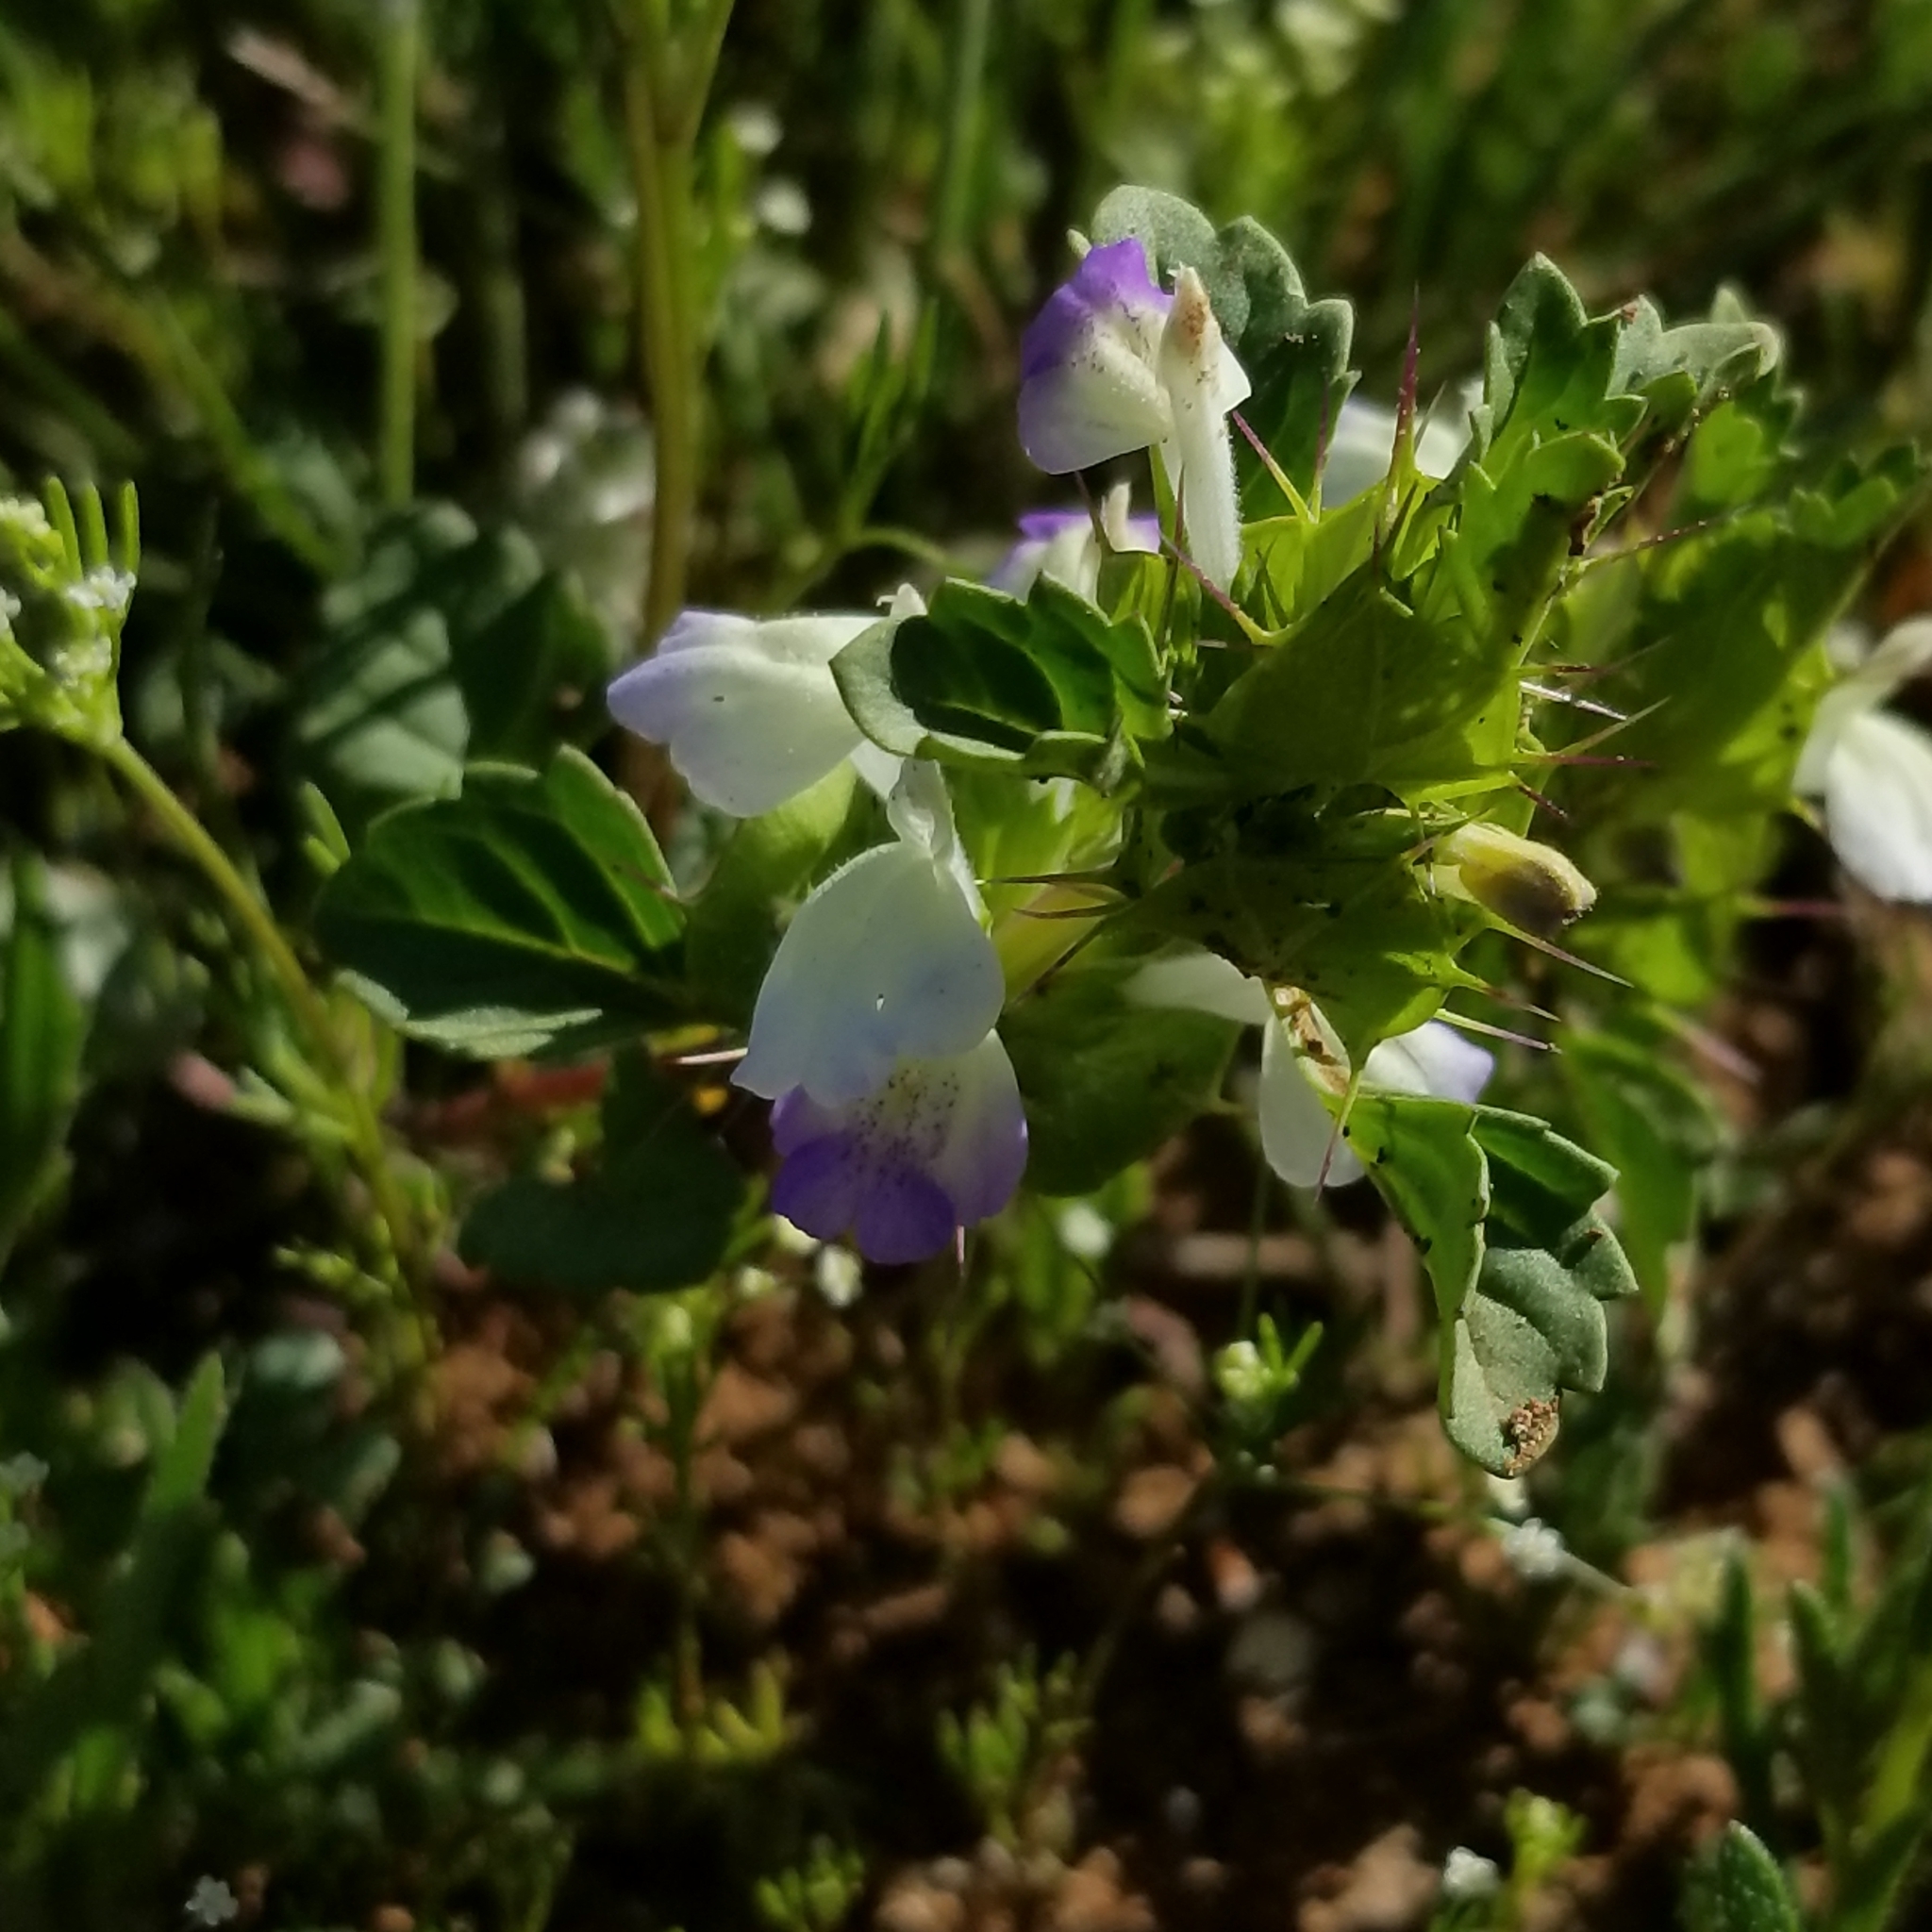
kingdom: Plantae
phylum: Tracheophyta
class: Magnoliopsida
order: Lamiales
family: Lamiaceae
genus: Acanthomintha
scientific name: Acanthomintha ilicifolia
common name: San diego thorn-mint
